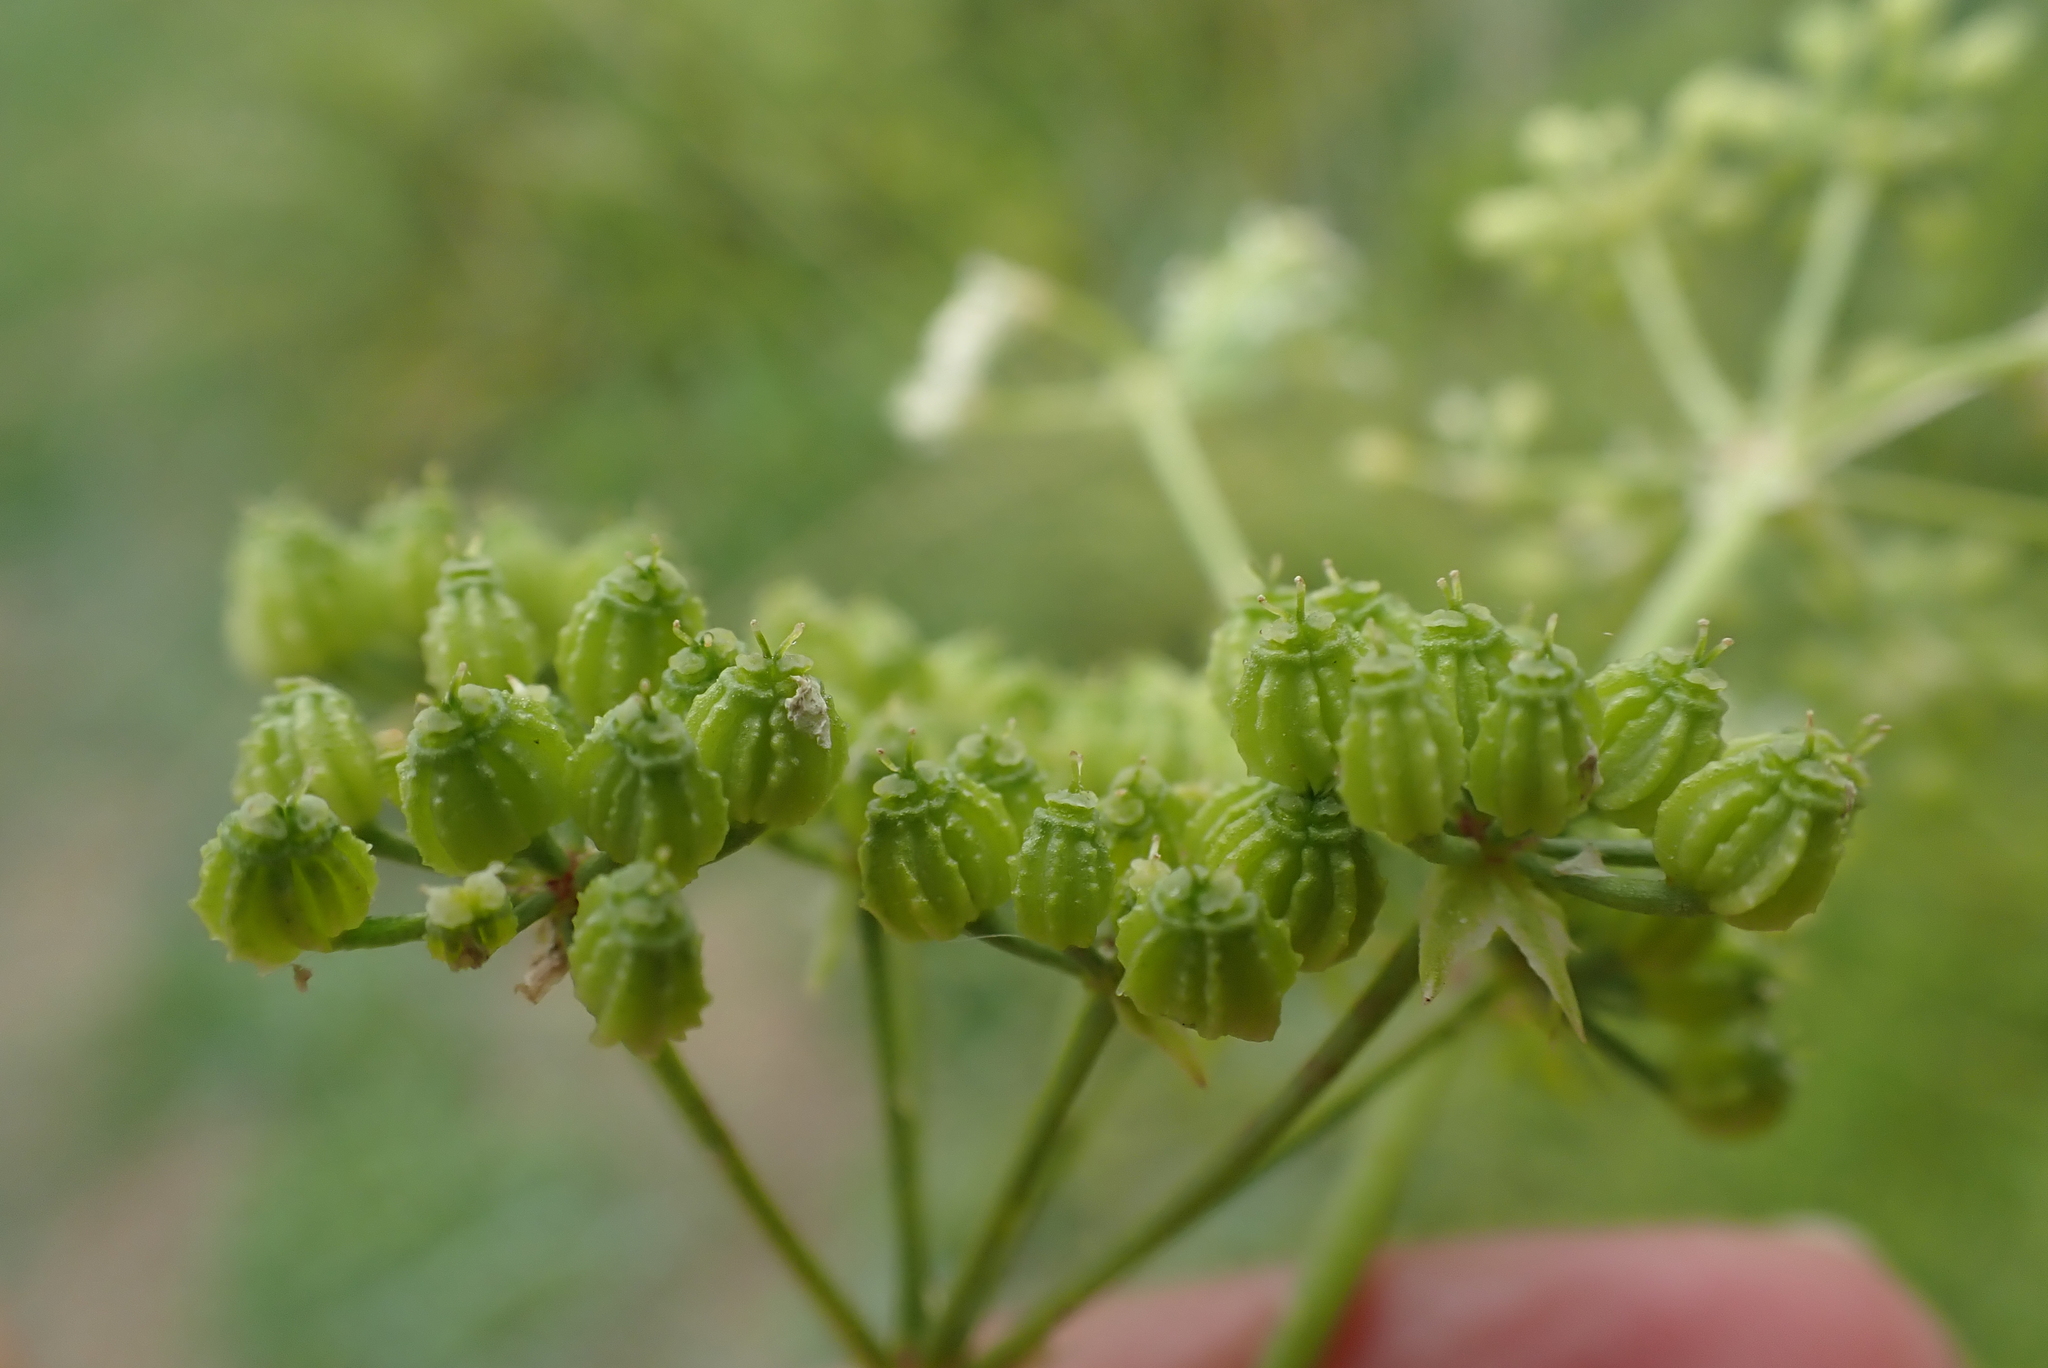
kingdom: Plantae
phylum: Tracheophyta
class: Magnoliopsida
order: Apiales
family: Apiaceae
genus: Conium
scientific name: Conium maculatum
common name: Hemlock
